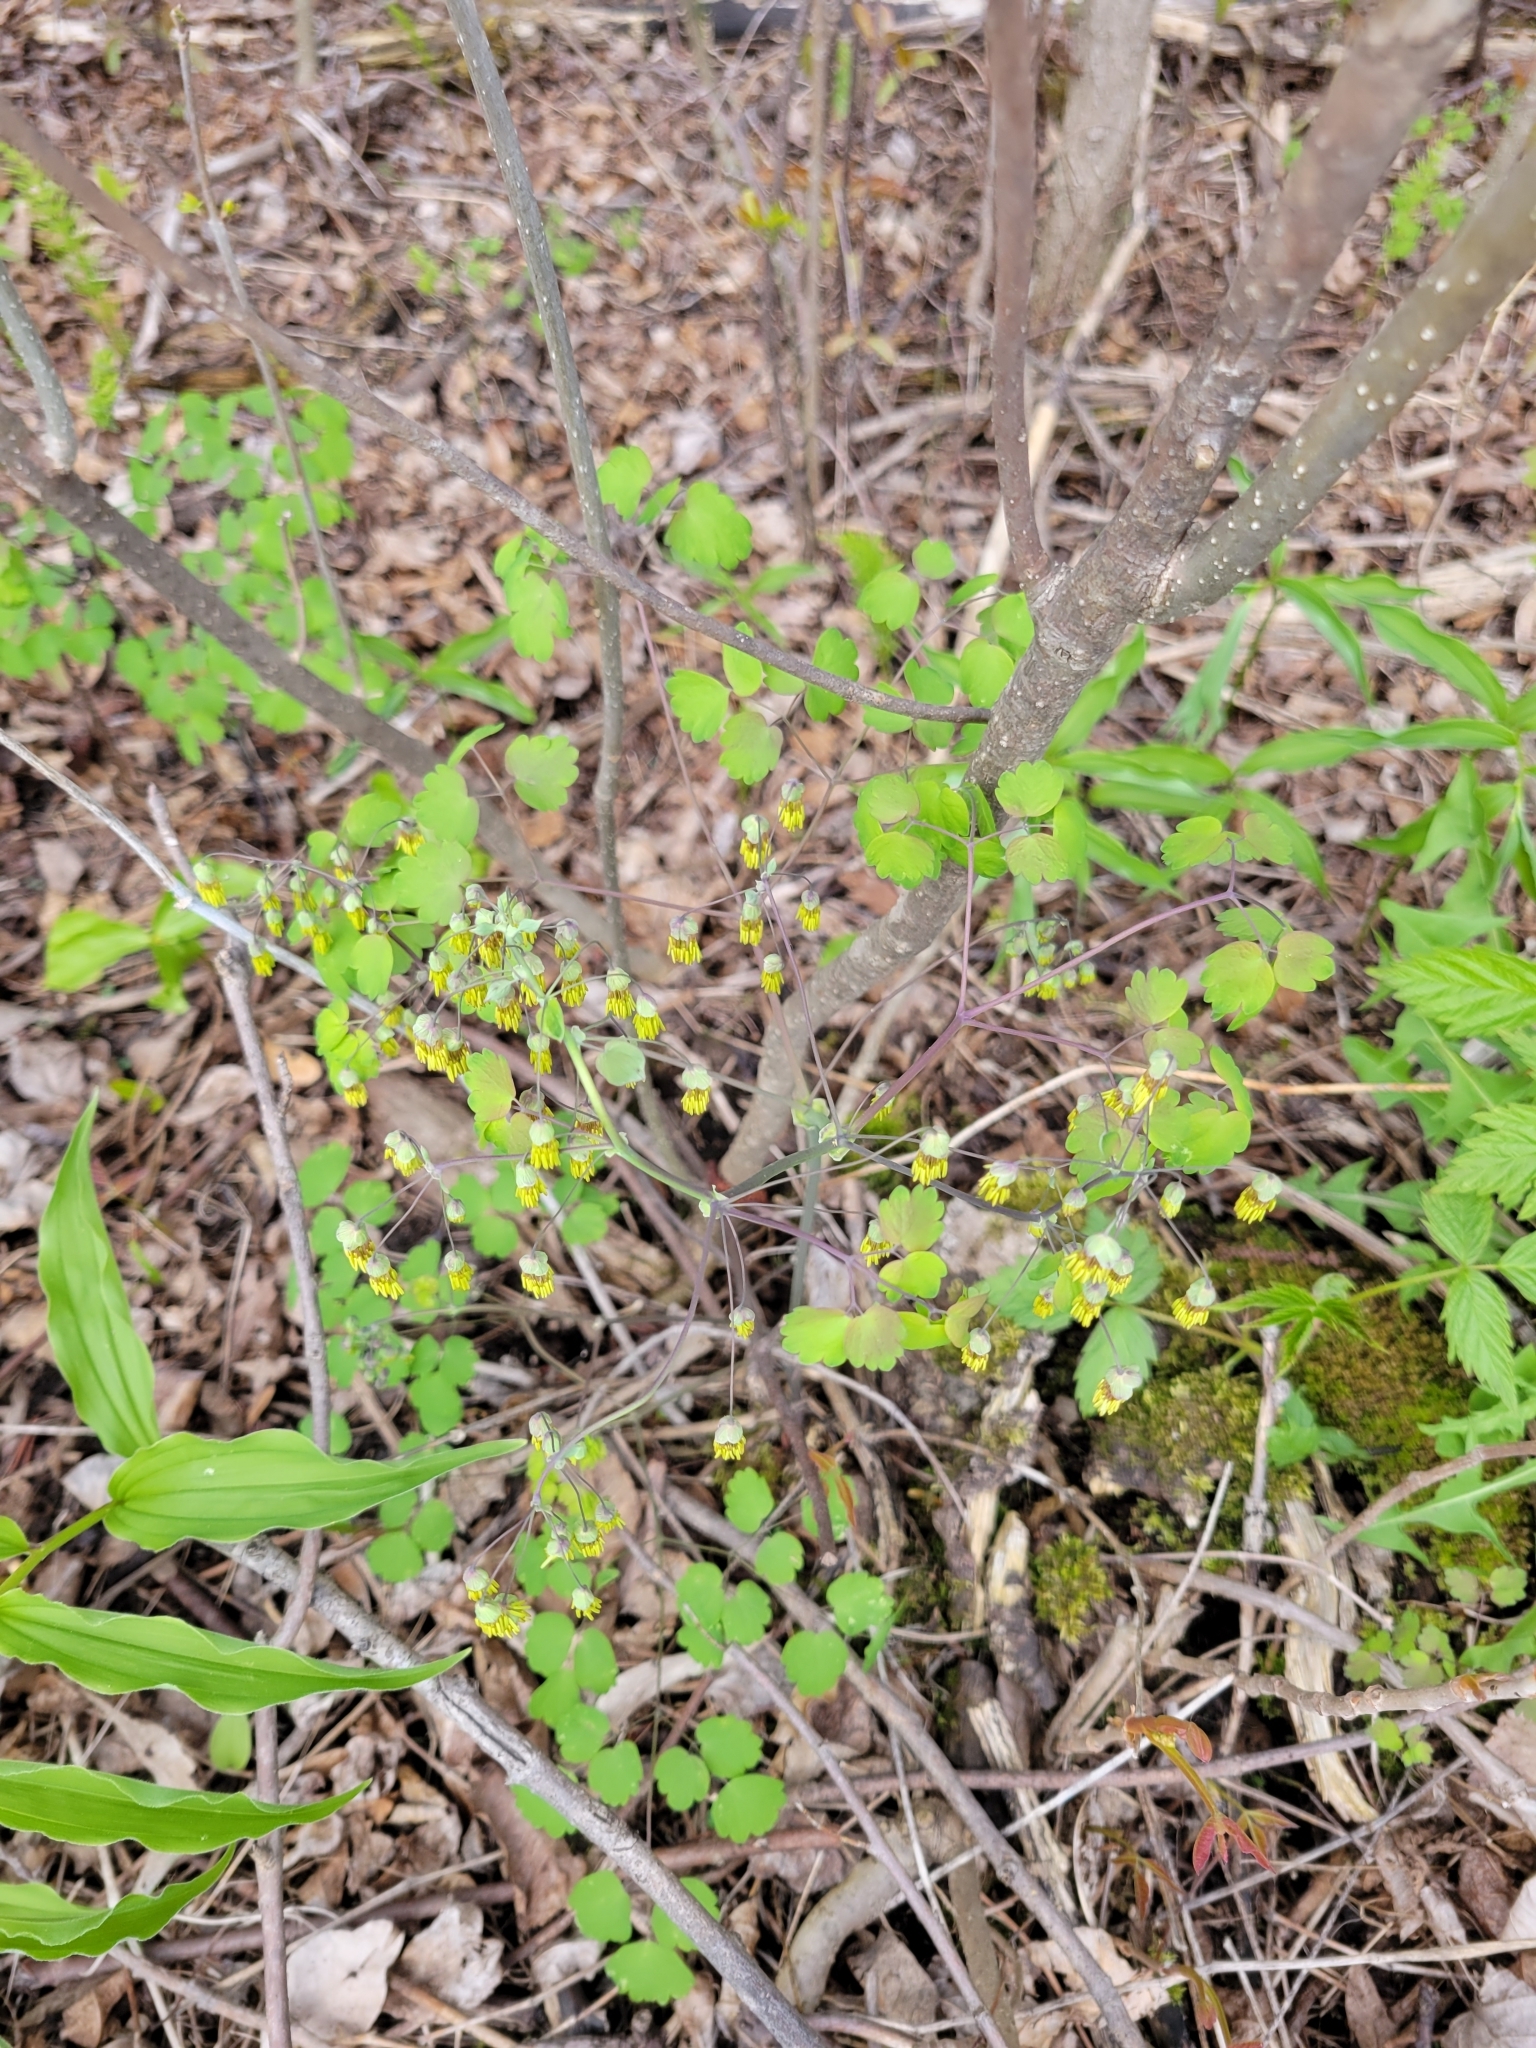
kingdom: Plantae
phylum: Tracheophyta
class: Magnoliopsida
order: Ranunculales
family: Ranunculaceae
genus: Thalictrum
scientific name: Thalictrum dioicum
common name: Early meadow-rue
